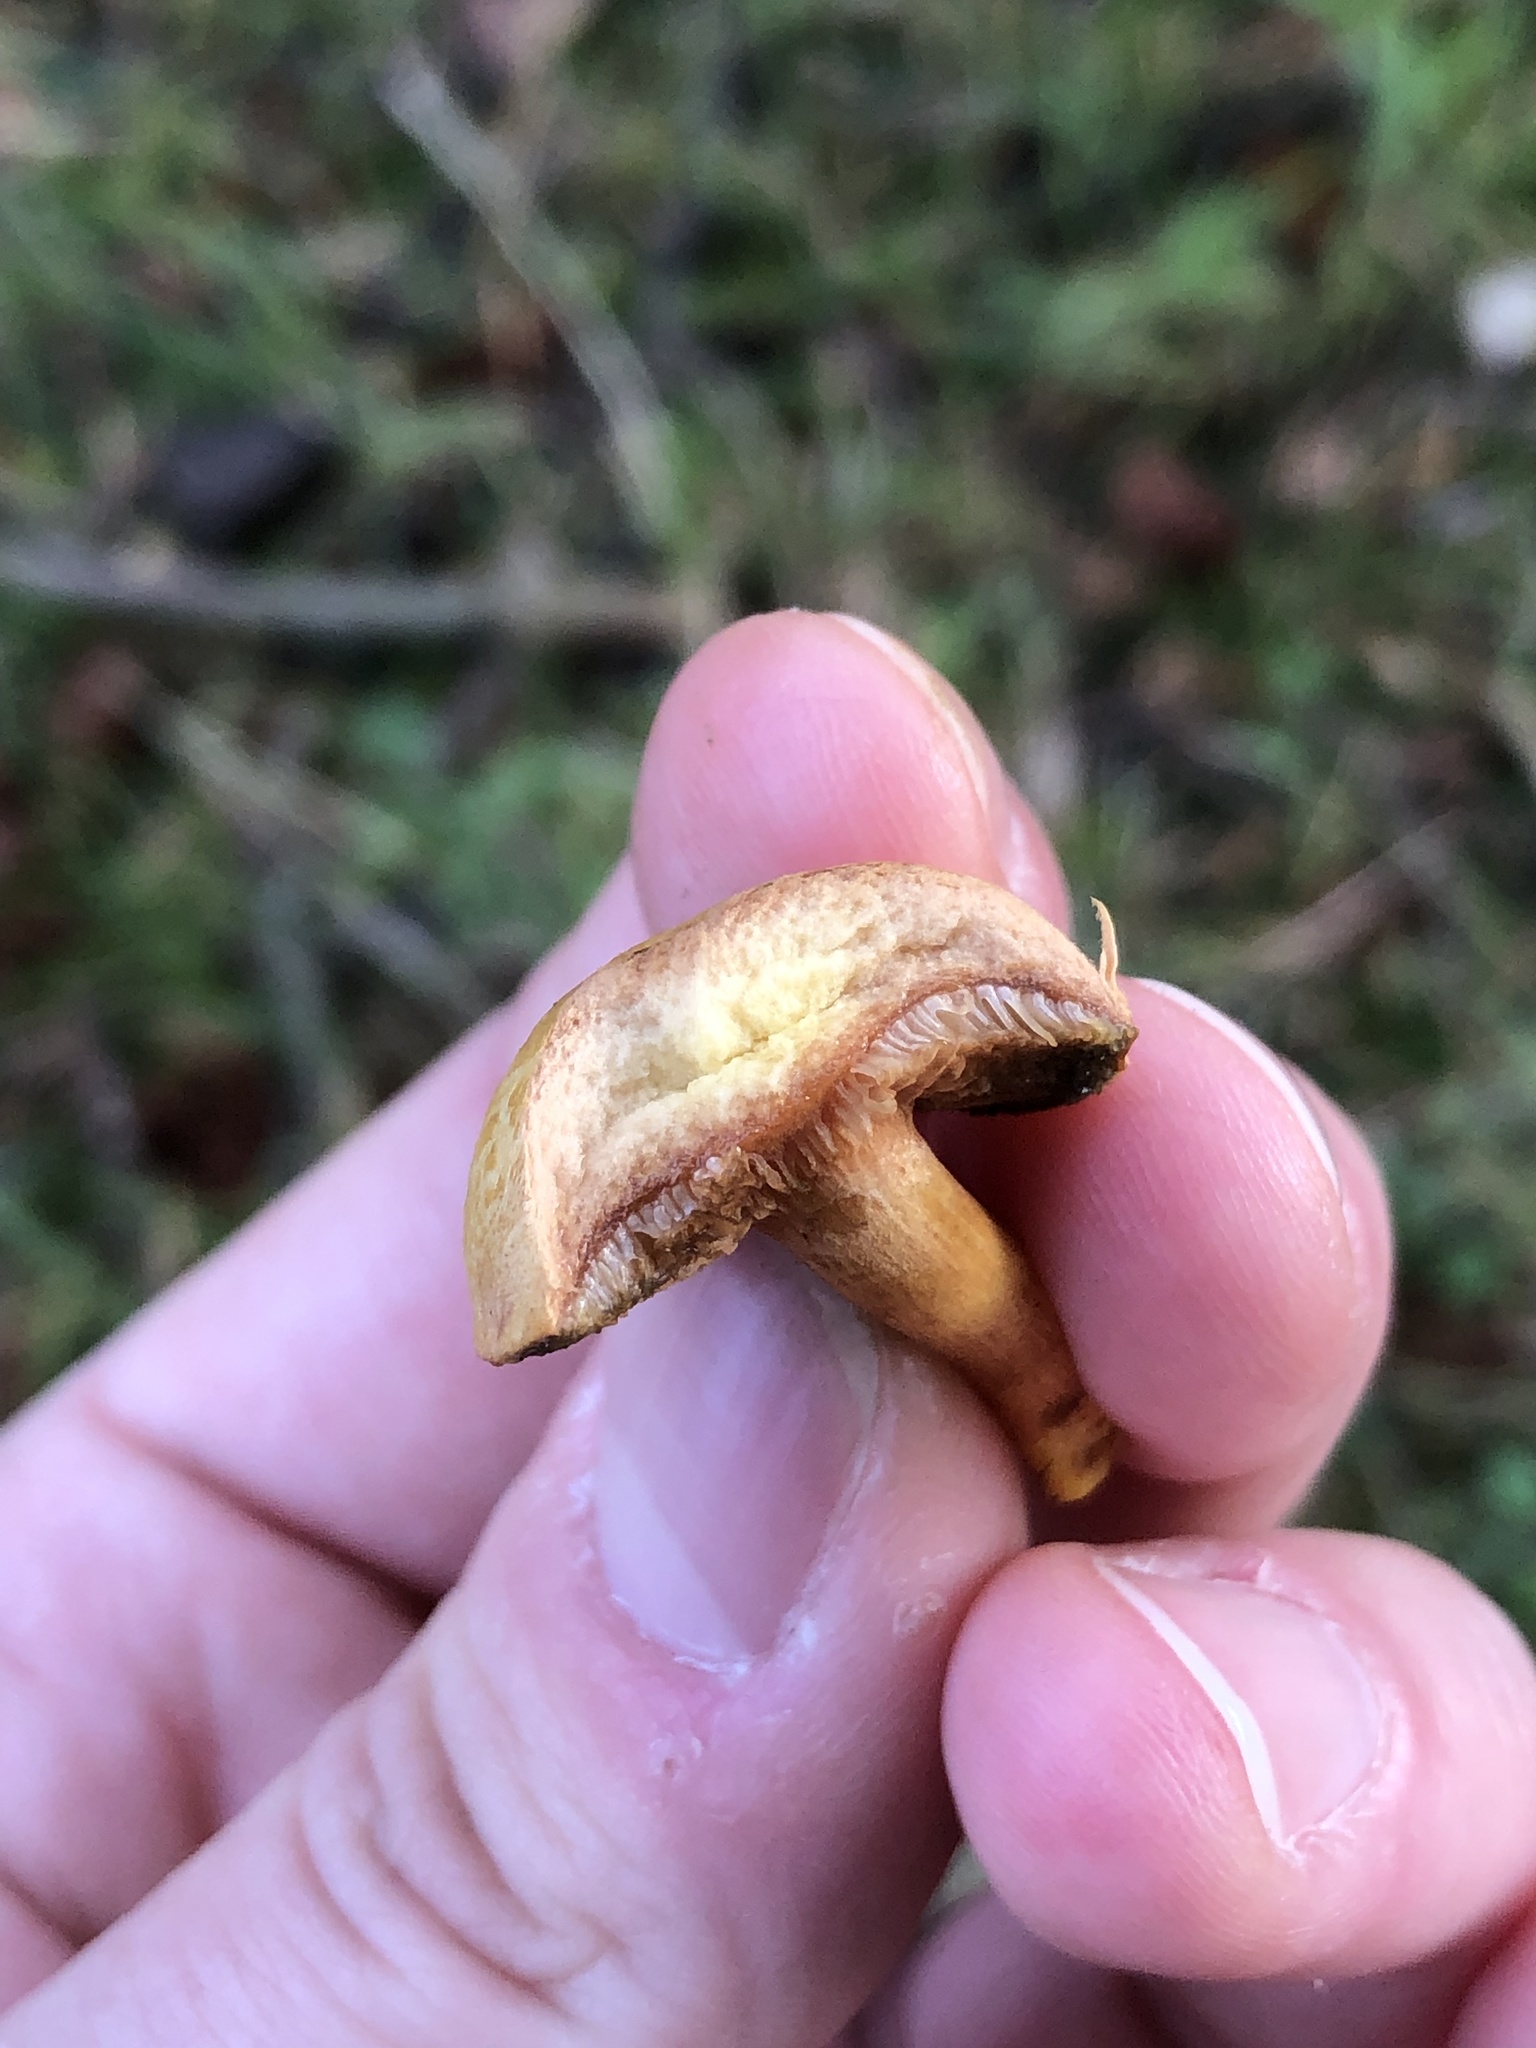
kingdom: Fungi
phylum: Basidiomycota
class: Agaricomycetes
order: Boletales
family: Boletaceae
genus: Chalciporus
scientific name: Chalciporus piperatus
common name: Peppery bolete
